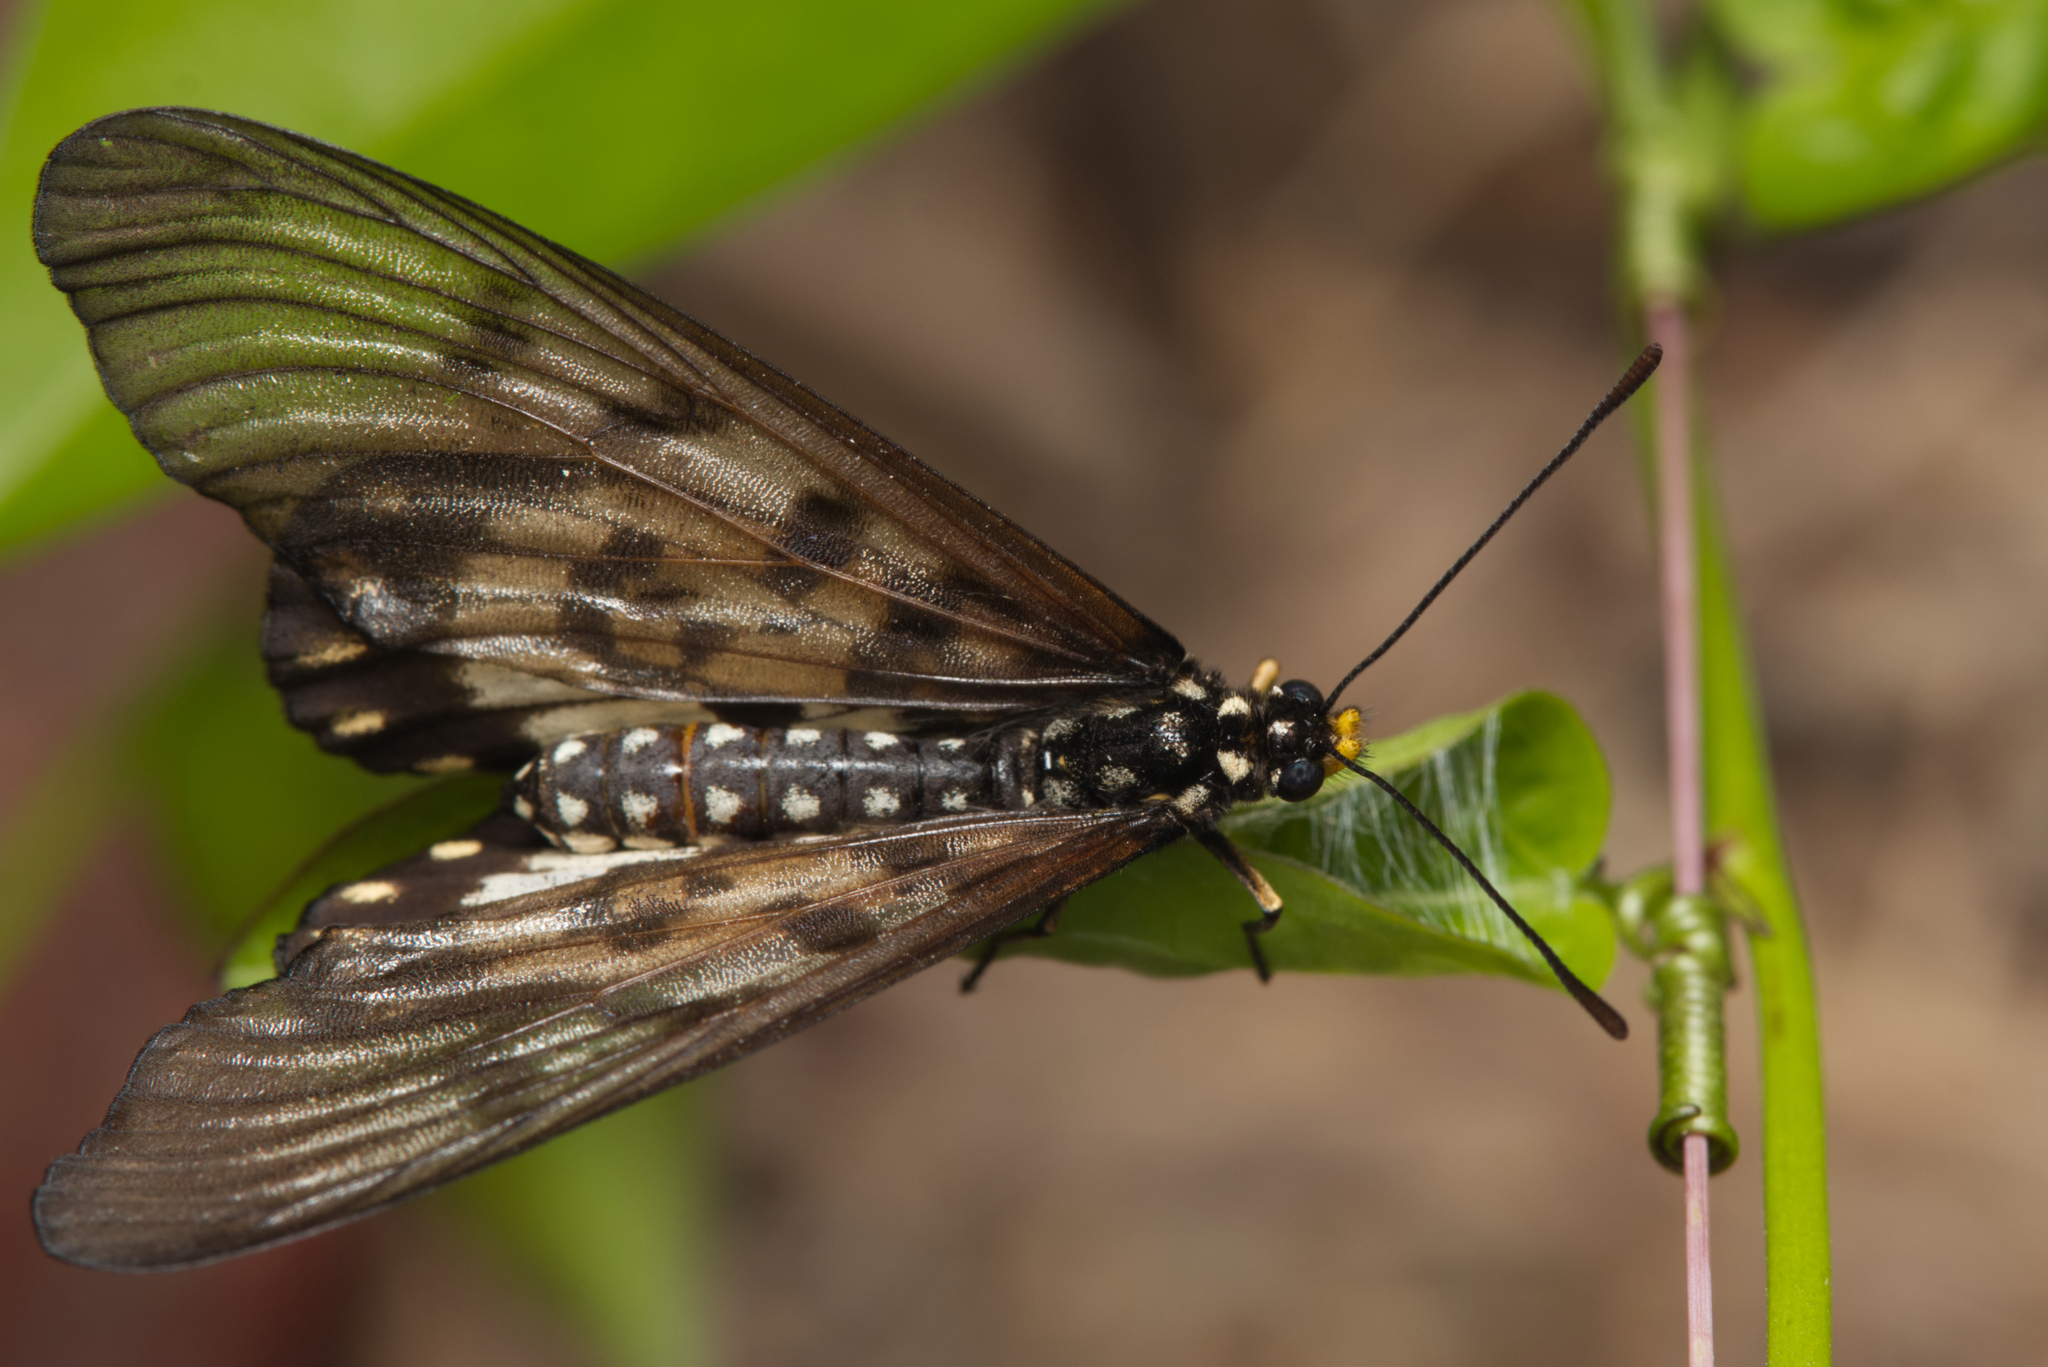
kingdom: Animalia
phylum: Arthropoda
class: Insecta
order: Lepidoptera
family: Nymphalidae
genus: Acraea
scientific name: Acraea andromacha
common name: Glasswing
